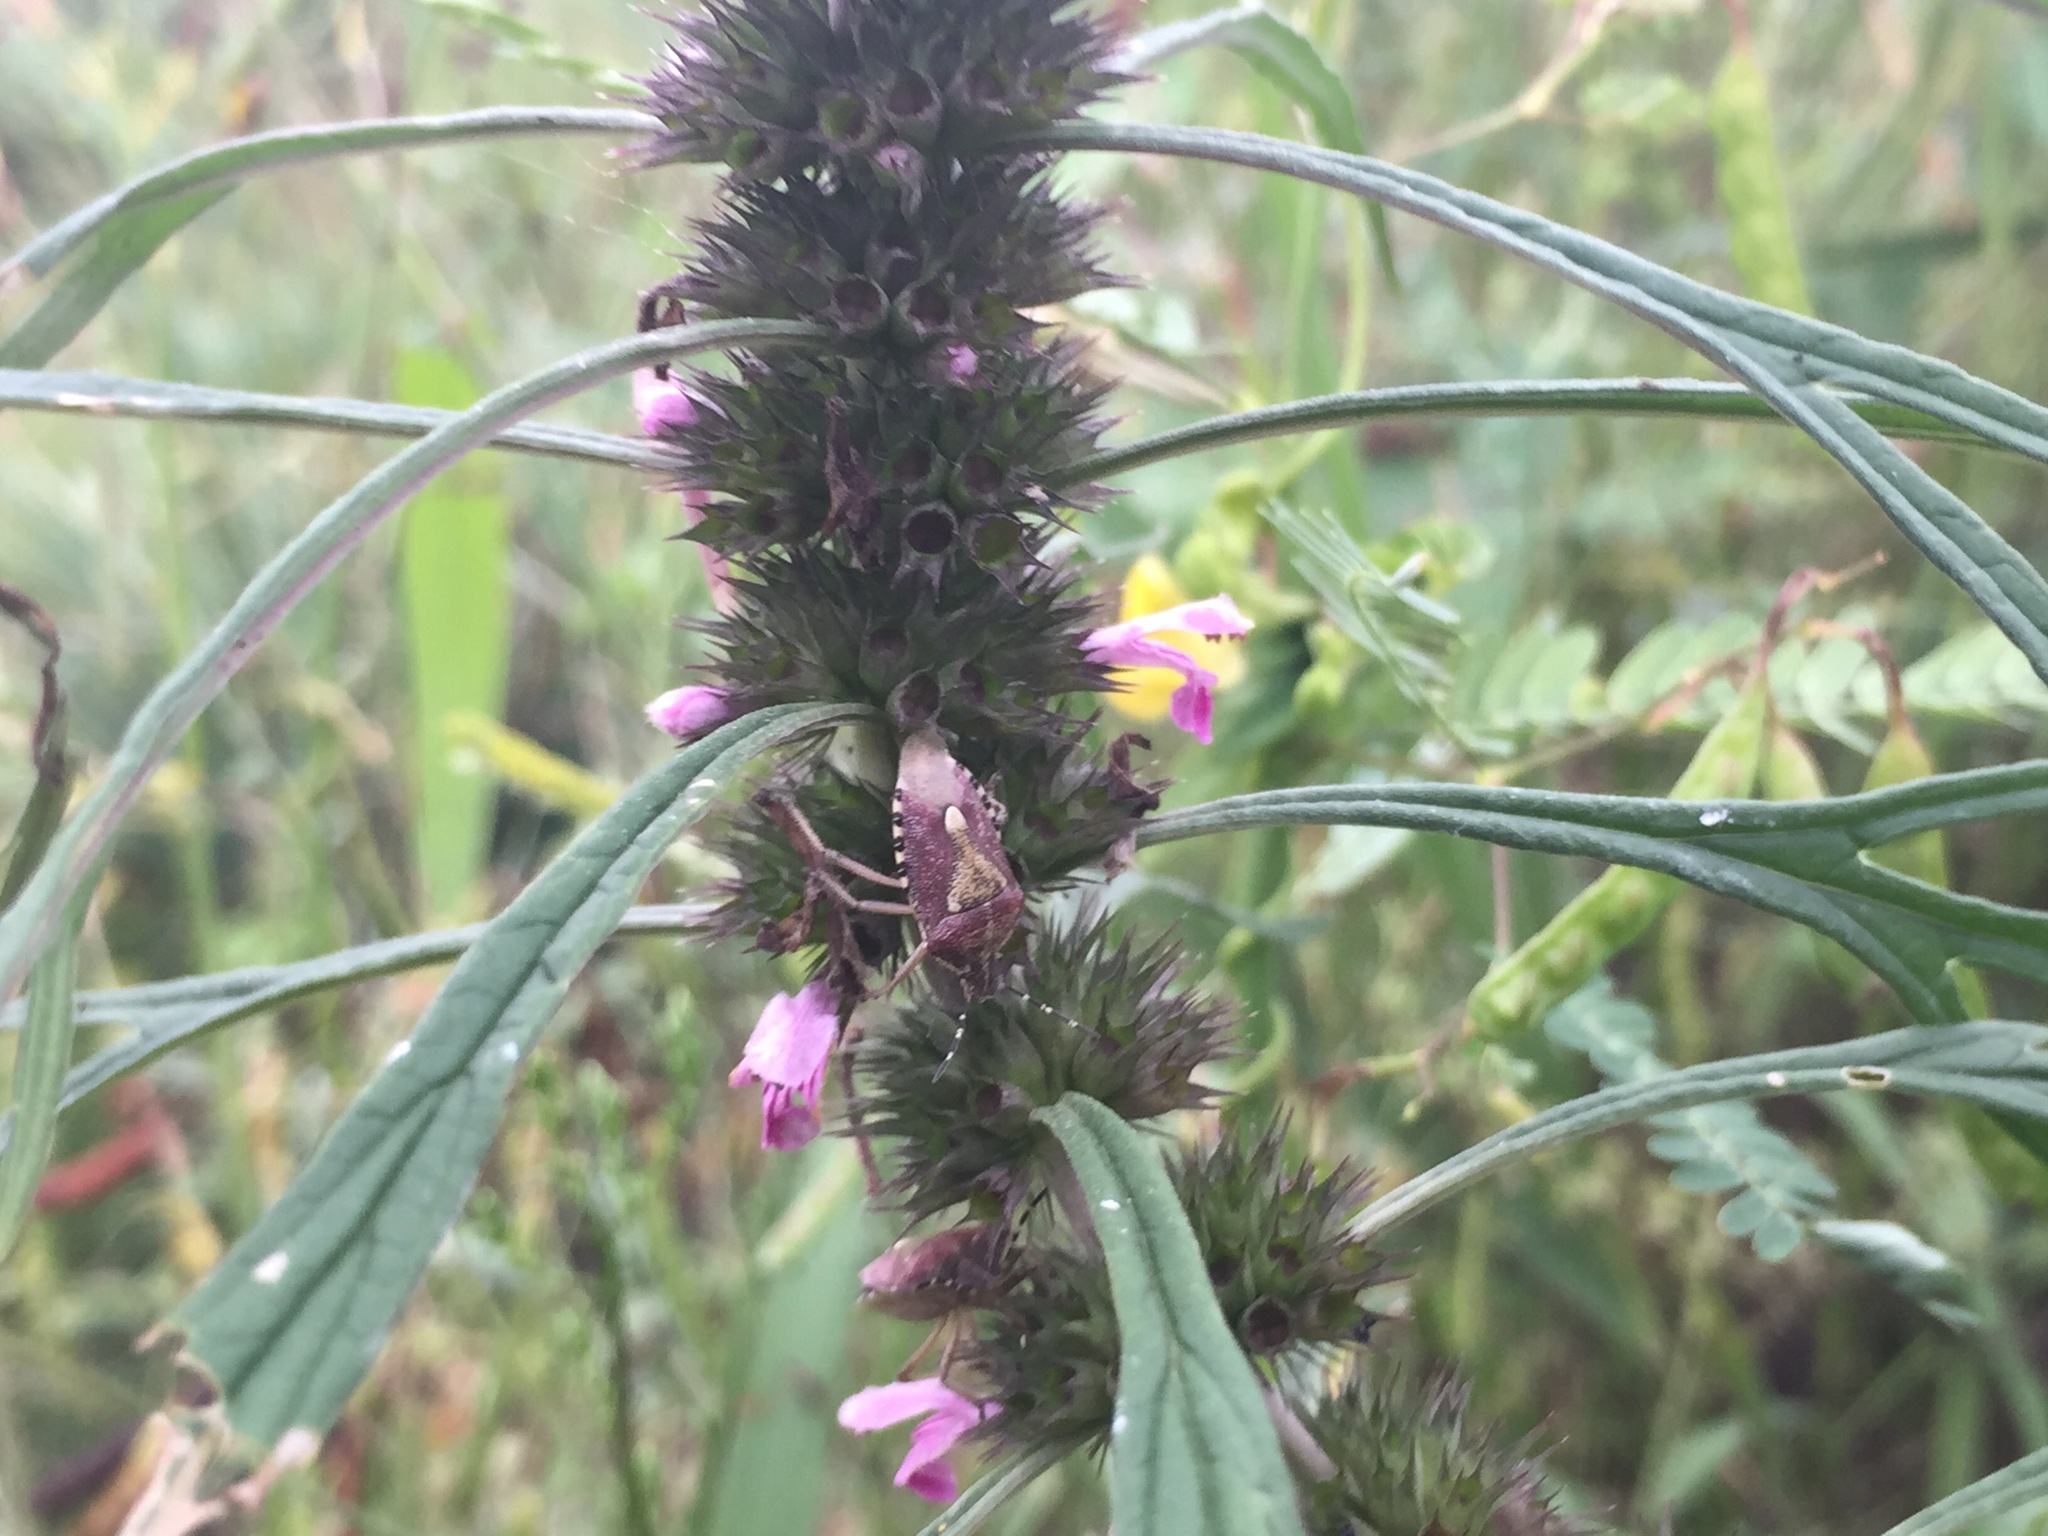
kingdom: Animalia
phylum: Arthropoda
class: Insecta
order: Hemiptera
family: Pentatomidae
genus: Dolycoris
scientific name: Dolycoris baccarum
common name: Sloe bug
